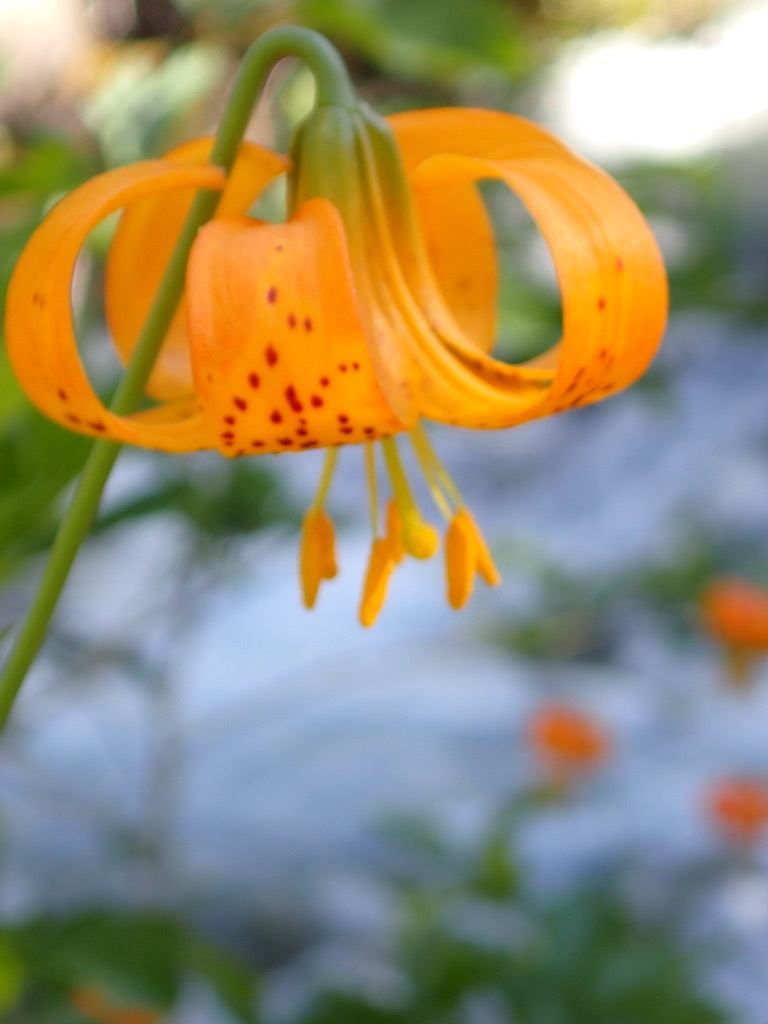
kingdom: Plantae
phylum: Tracheophyta
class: Liliopsida
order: Liliales
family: Liliaceae
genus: Lilium
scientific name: Lilium kelleyanum
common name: Kelley's lily
